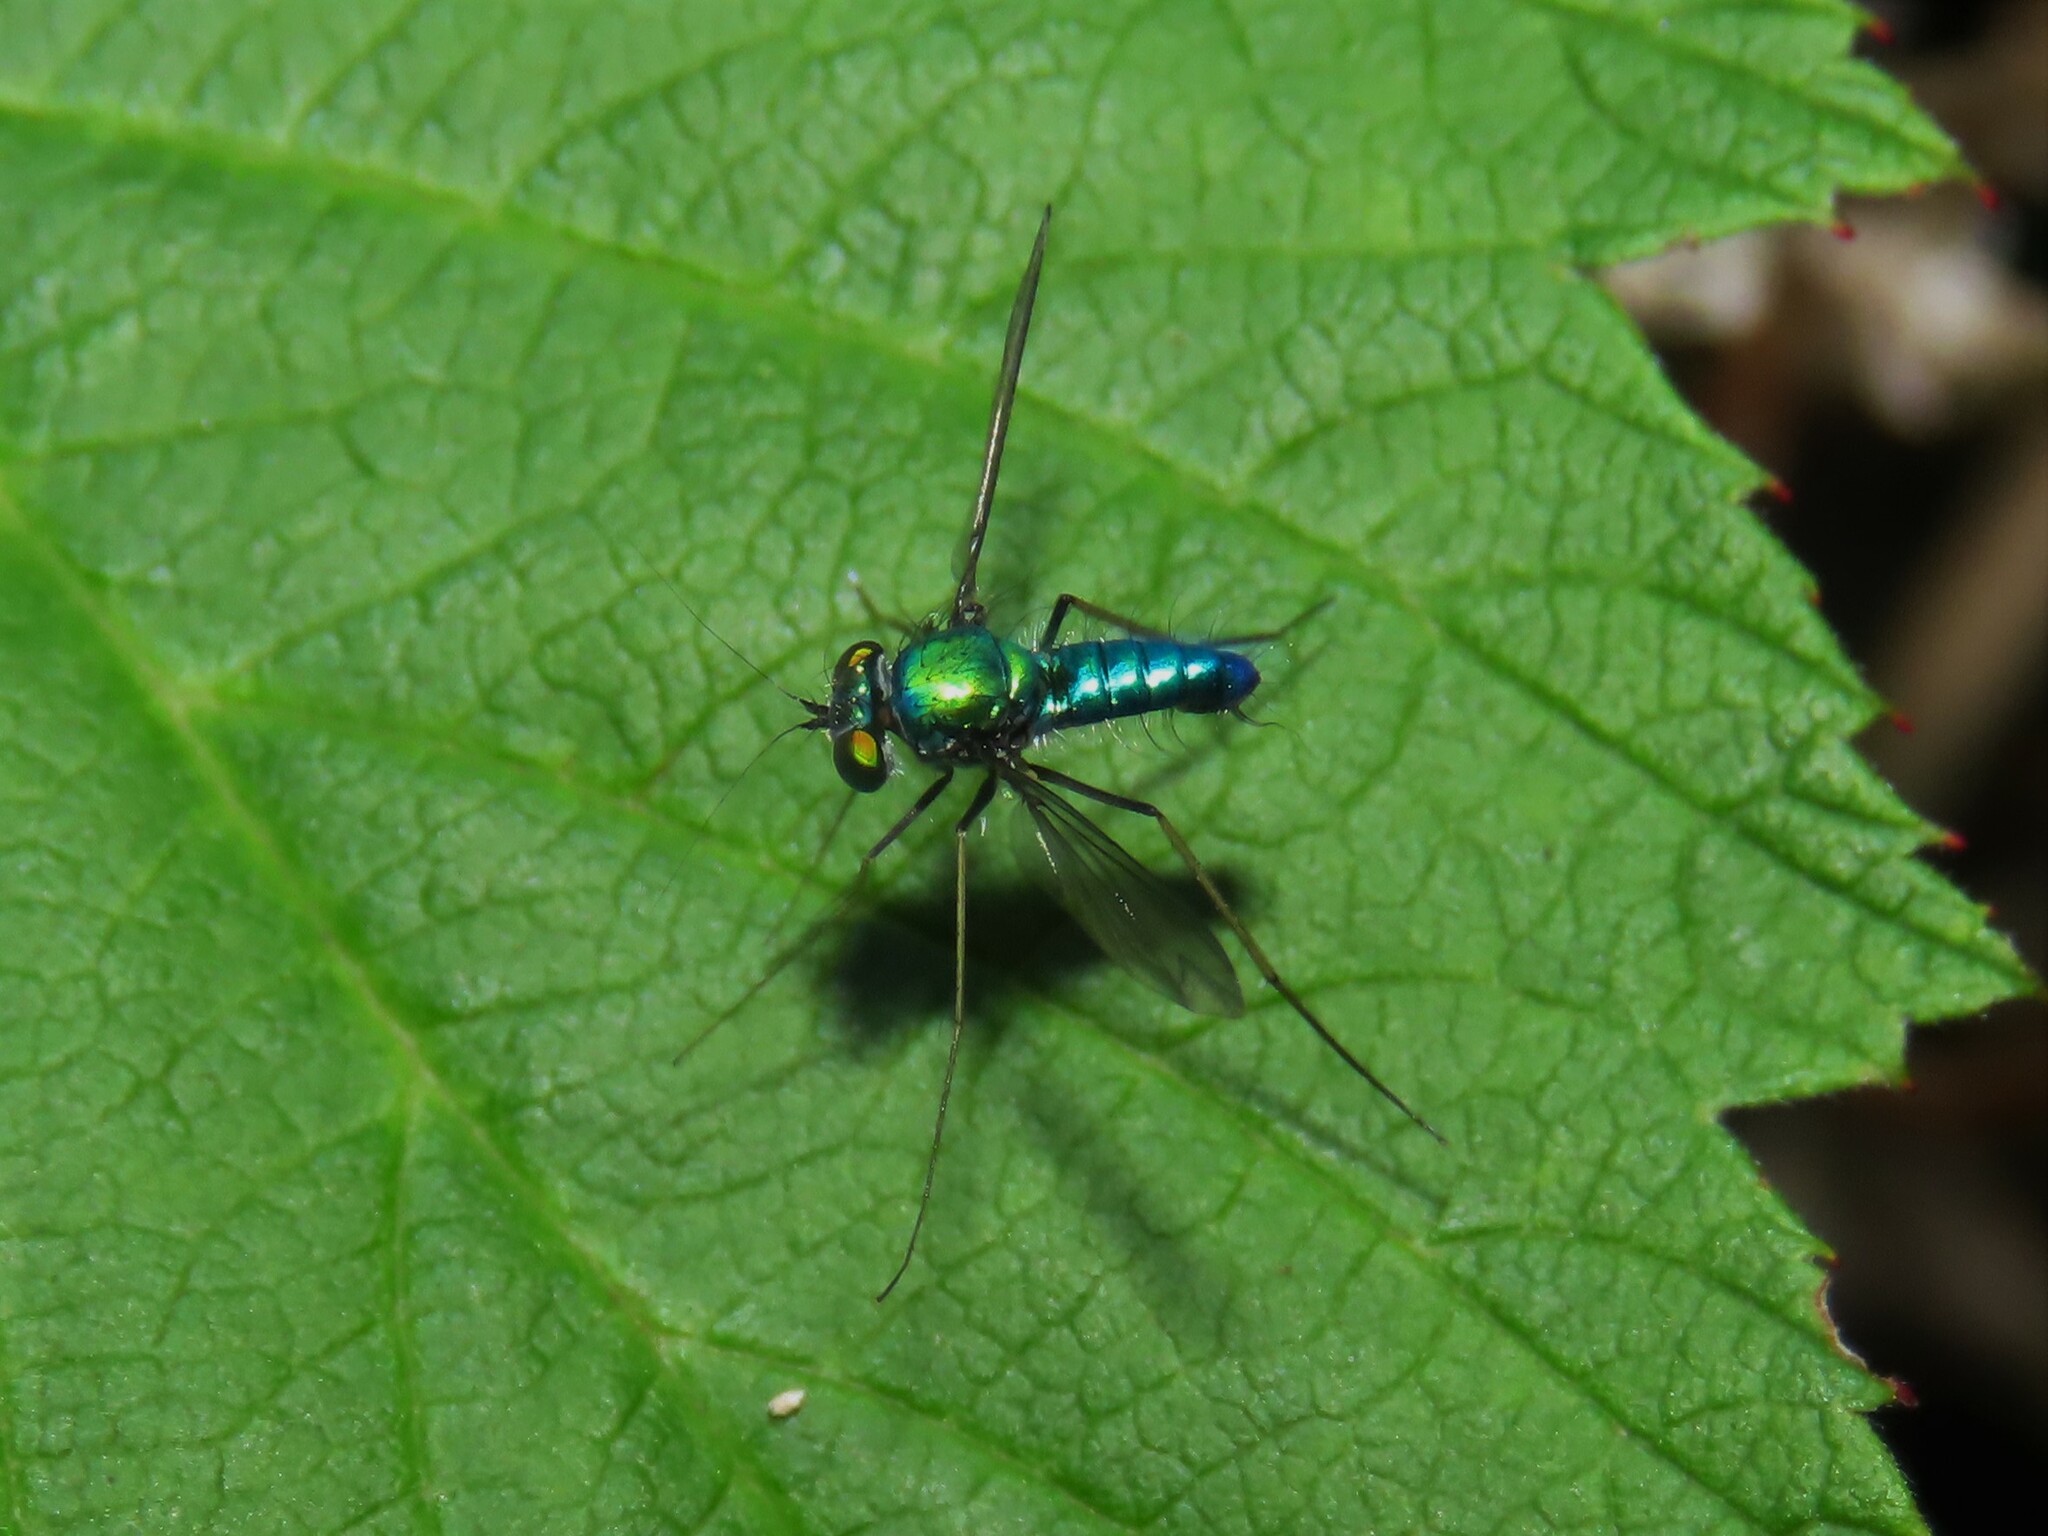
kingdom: Animalia
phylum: Arthropoda
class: Insecta
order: Diptera
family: Dolichopodidae
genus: Condylostylus
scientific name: Condylostylus comatus
